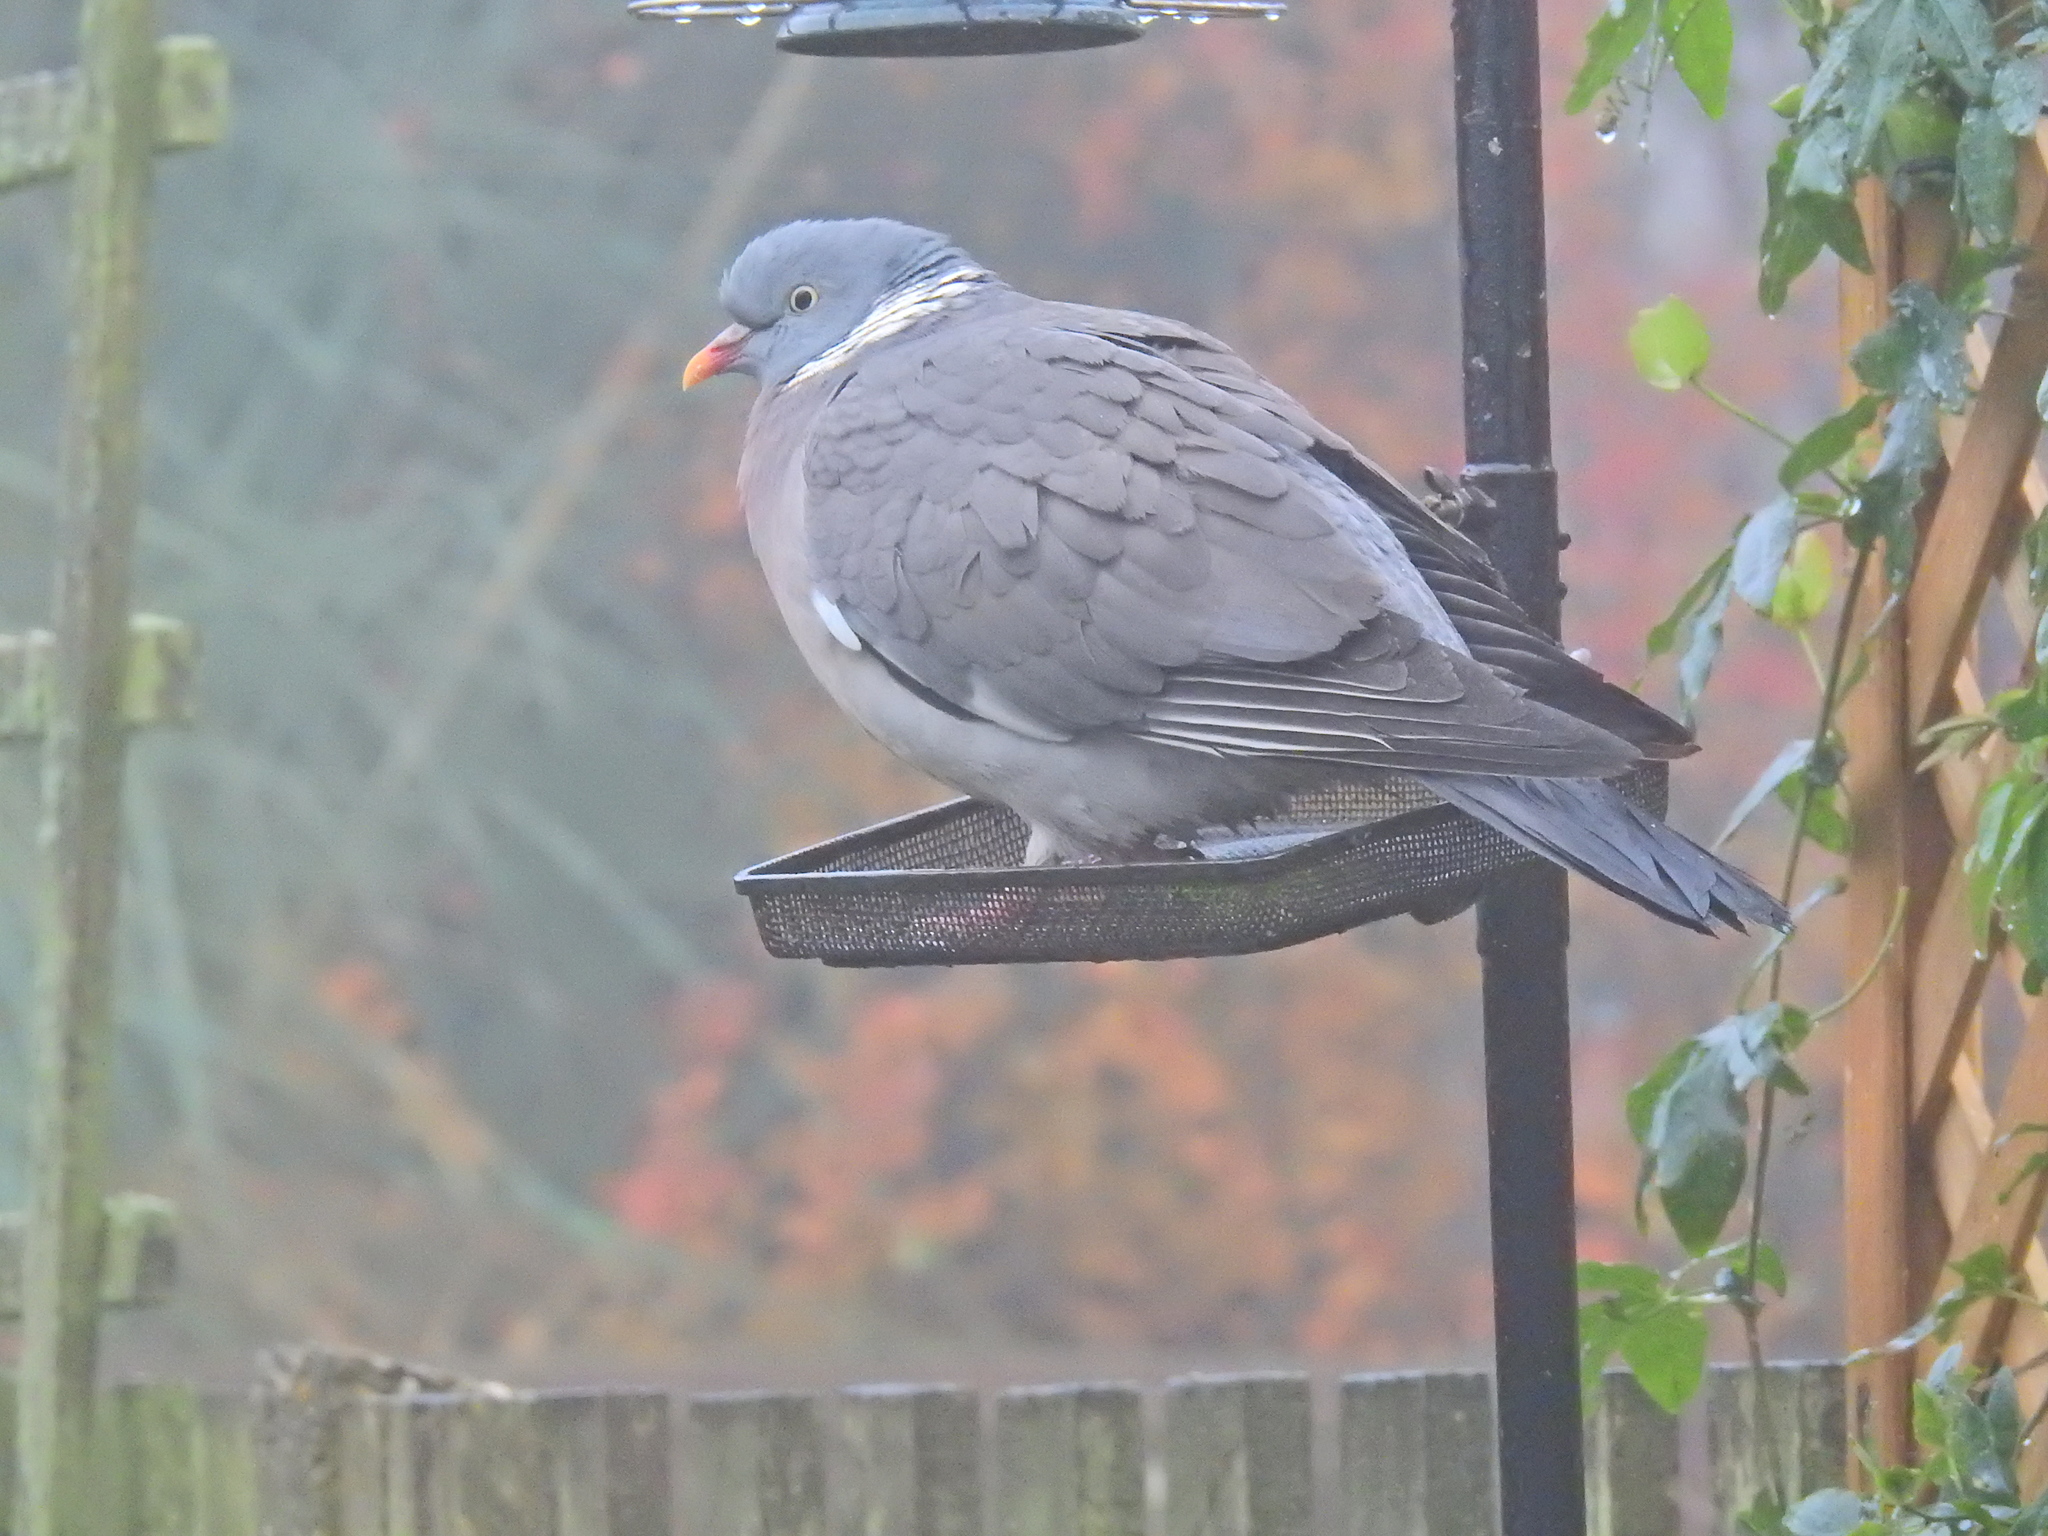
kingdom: Animalia
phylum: Chordata
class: Aves
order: Columbiformes
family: Columbidae
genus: Columba
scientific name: Columba palumbus
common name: Common wood pigeon
